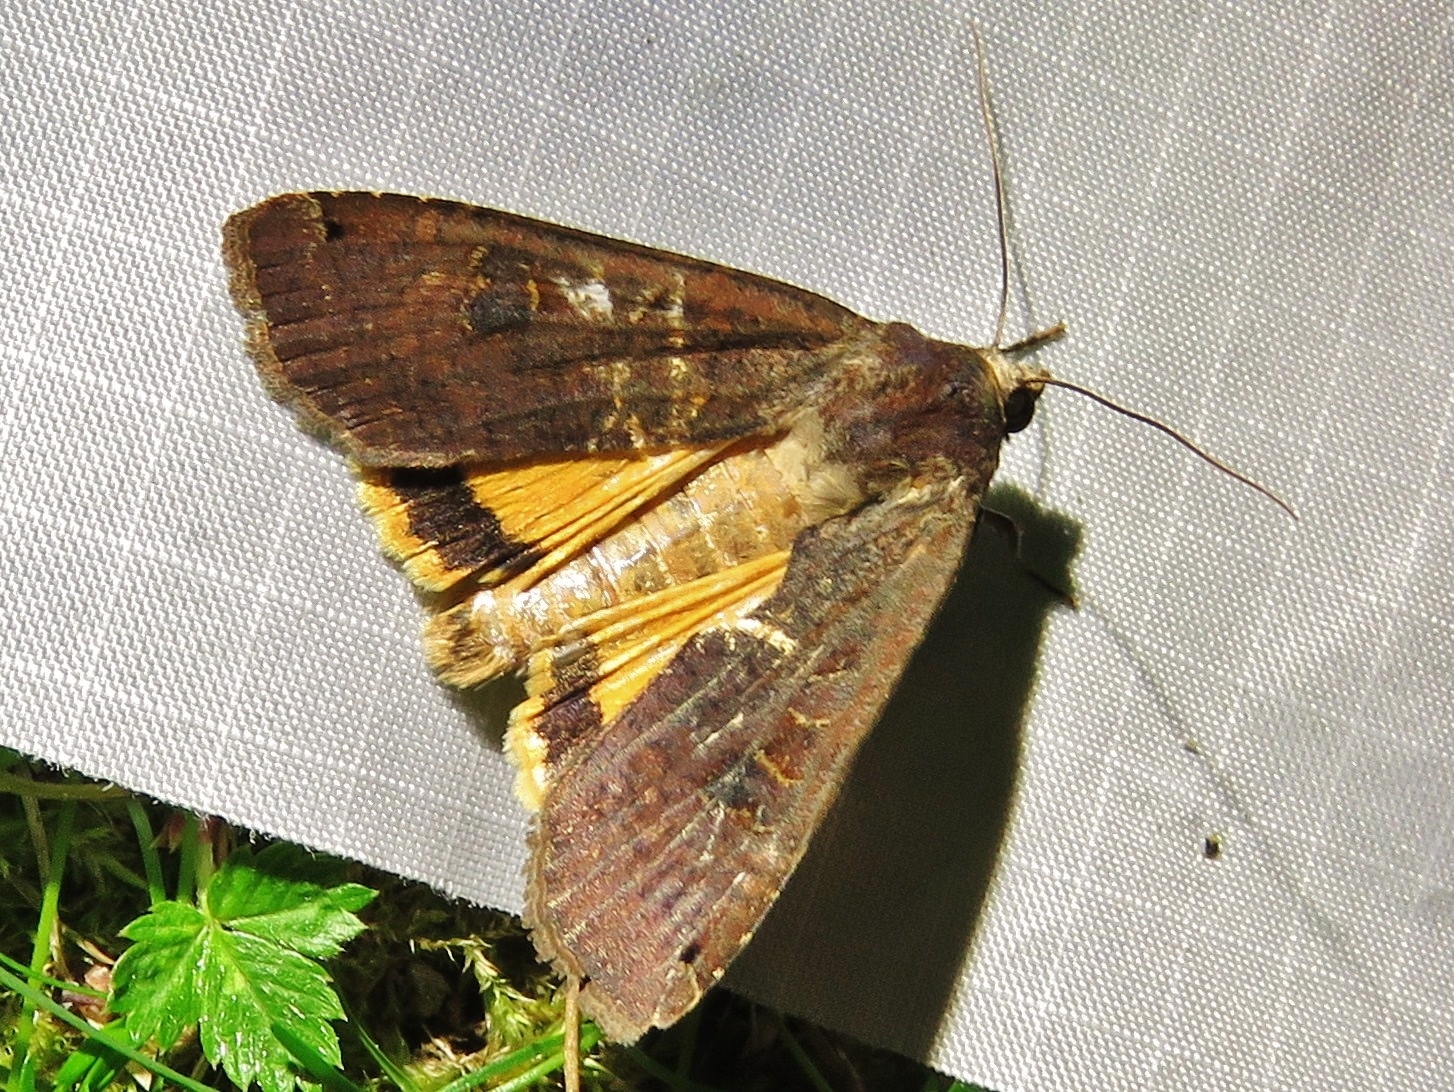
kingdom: Animalia
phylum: Arthropoda
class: Insecta
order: Lepidoptera
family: Noctuidae
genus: Noctua
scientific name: Noctua pronuba
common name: Large yellow underwing
